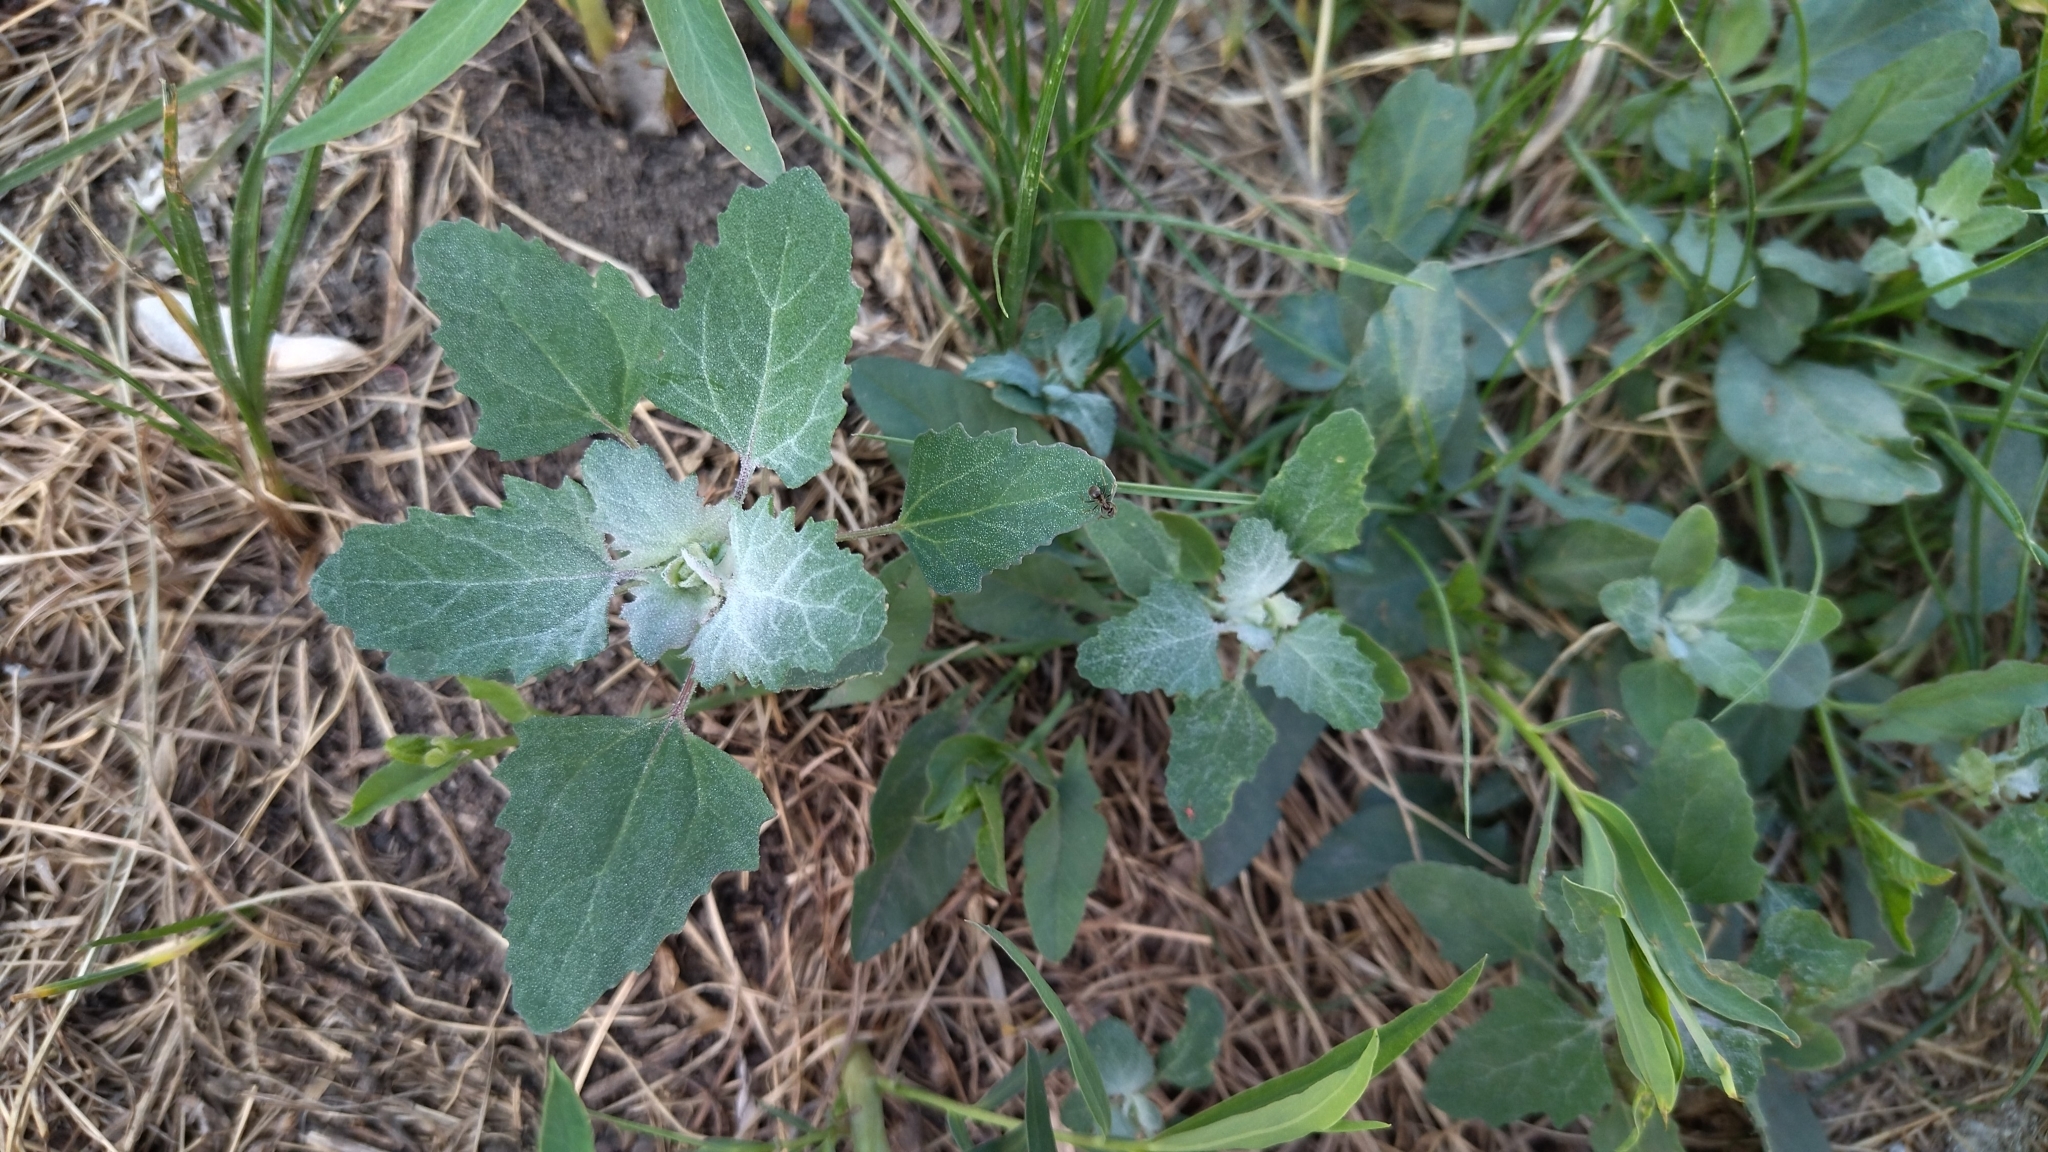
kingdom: Plantae
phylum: Tracheophyta
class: Magnoliopsida
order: Caryophyllales
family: Amaranthaceae
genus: Chenopodium
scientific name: Chenopodium album
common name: Fat-hen
